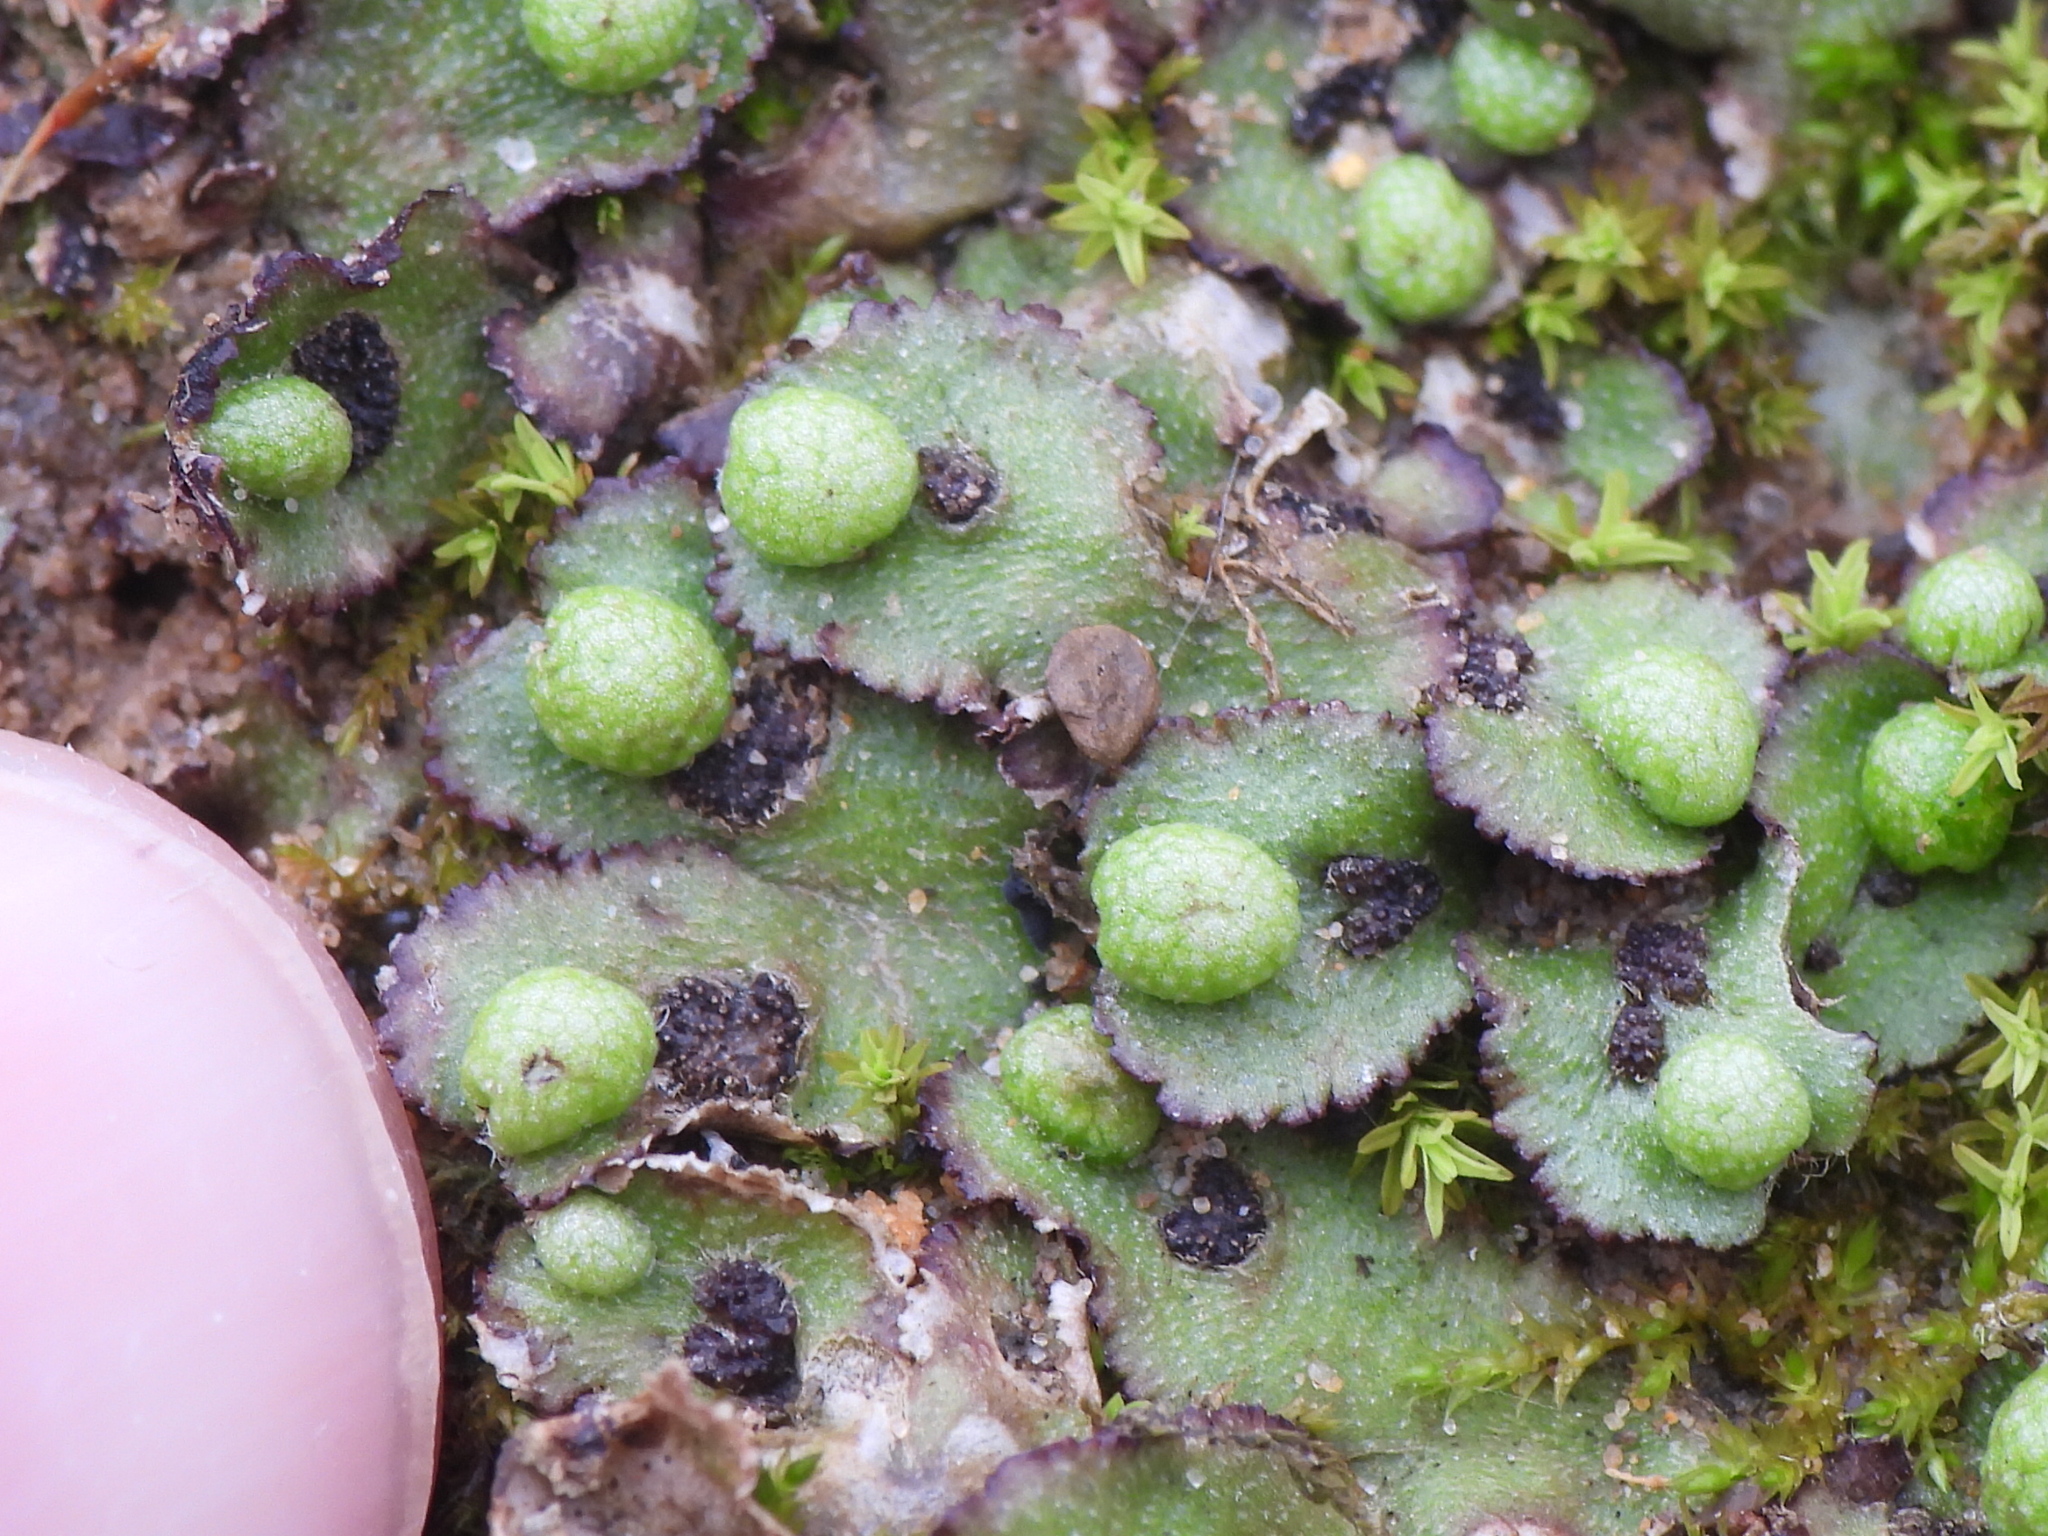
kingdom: Plantae
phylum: Marchantiophyta
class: Marchantiopsida
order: Marchantiales
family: Aytoniaceae
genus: Reboulia
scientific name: Reboulia hemisphaerica
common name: Purple-margined liverwort
